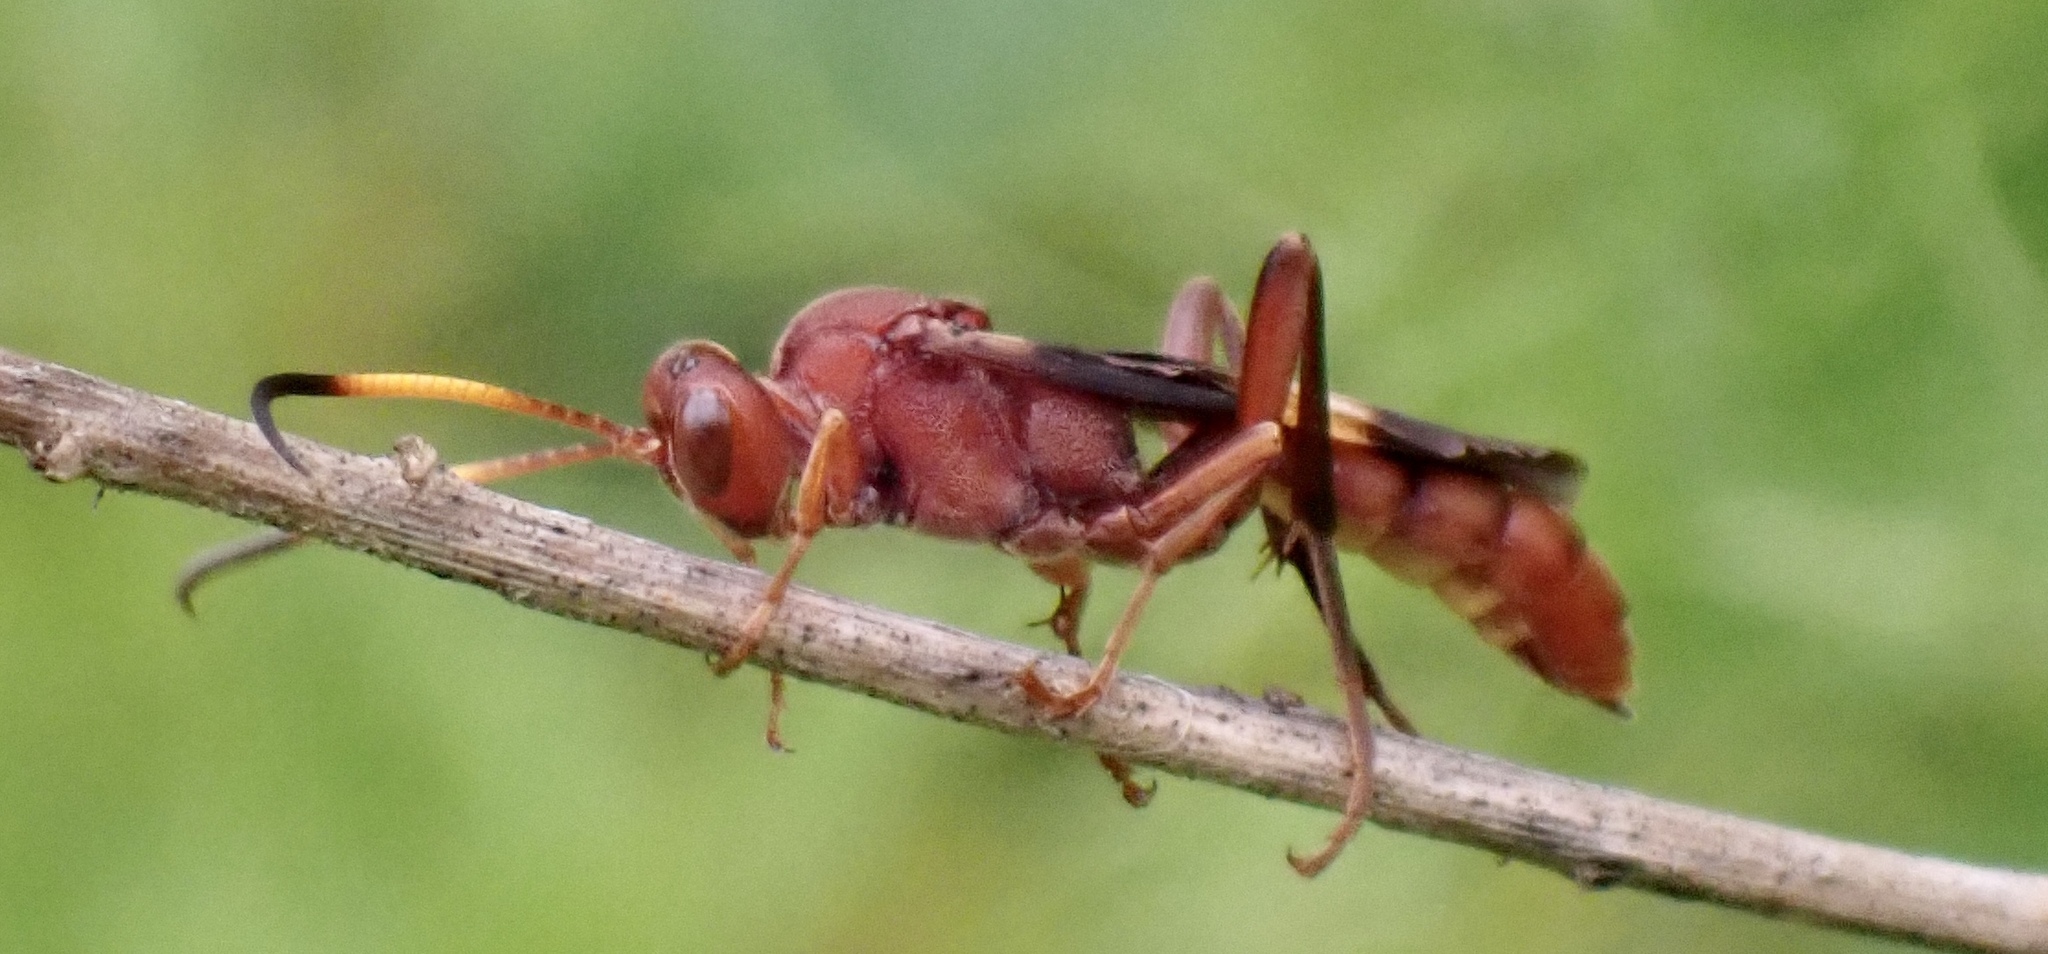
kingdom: Animalia
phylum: Arthropoda
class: Insecta
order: Hymenoptera
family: Ichneumonidae
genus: Trogomorpha
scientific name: Trogomorpha arrogans
